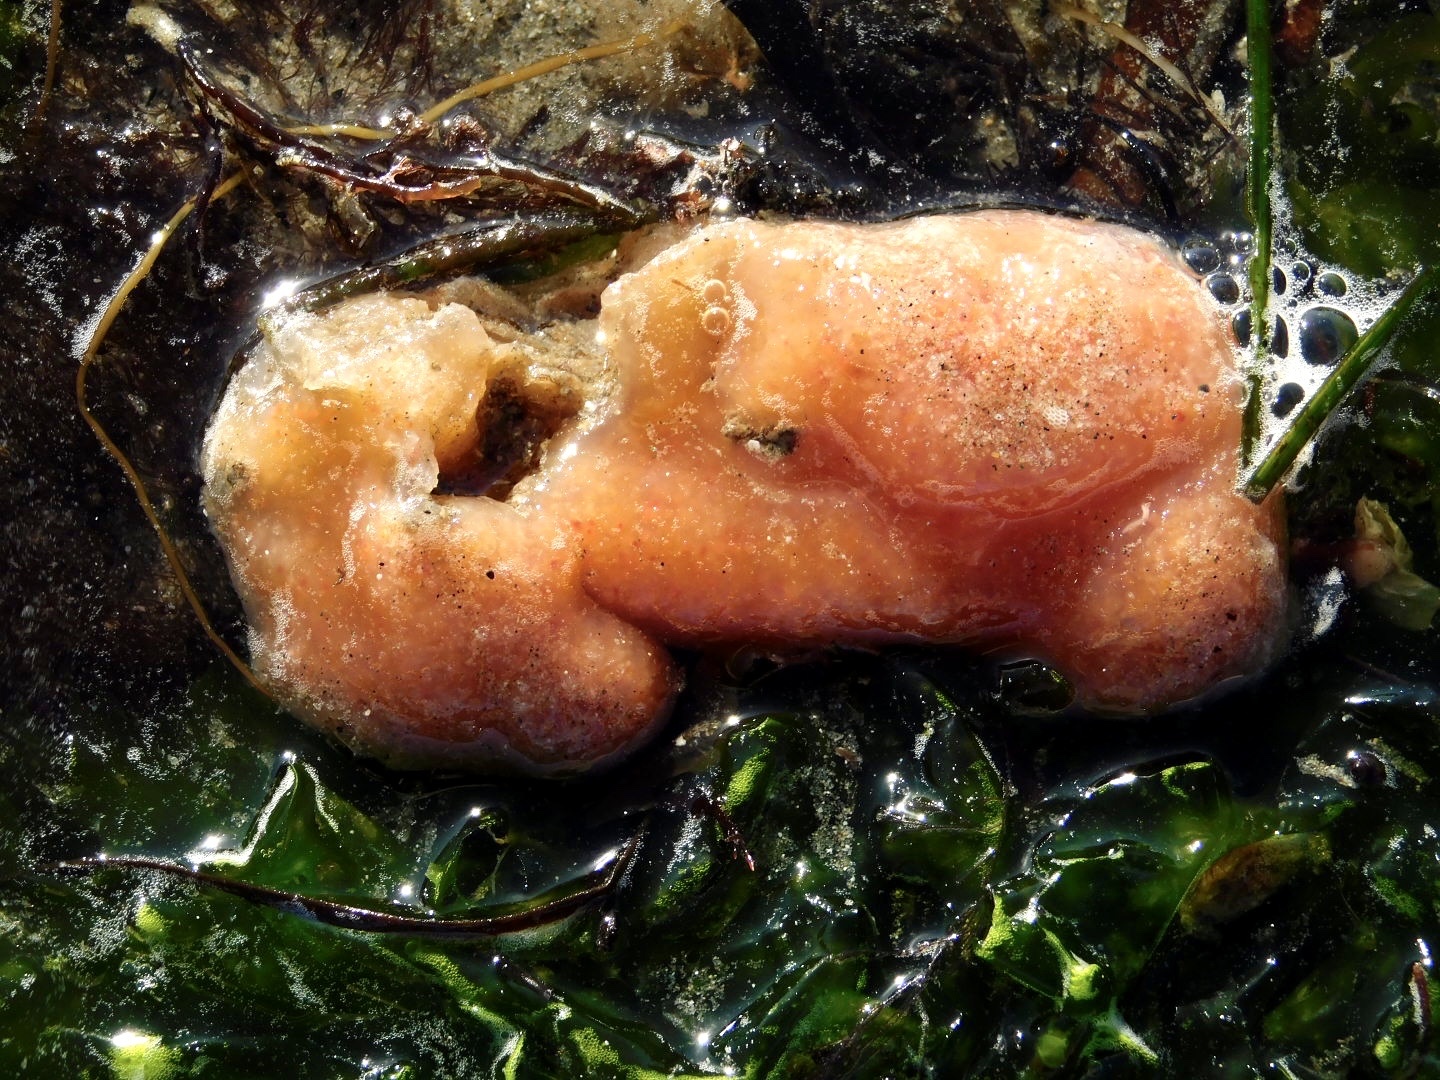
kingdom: Animalia
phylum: Chordata
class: Ascidiacea
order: Aplousobranchia
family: Polyclinidae
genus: Aplidium
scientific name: Aplidium californicum
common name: Sea pork
